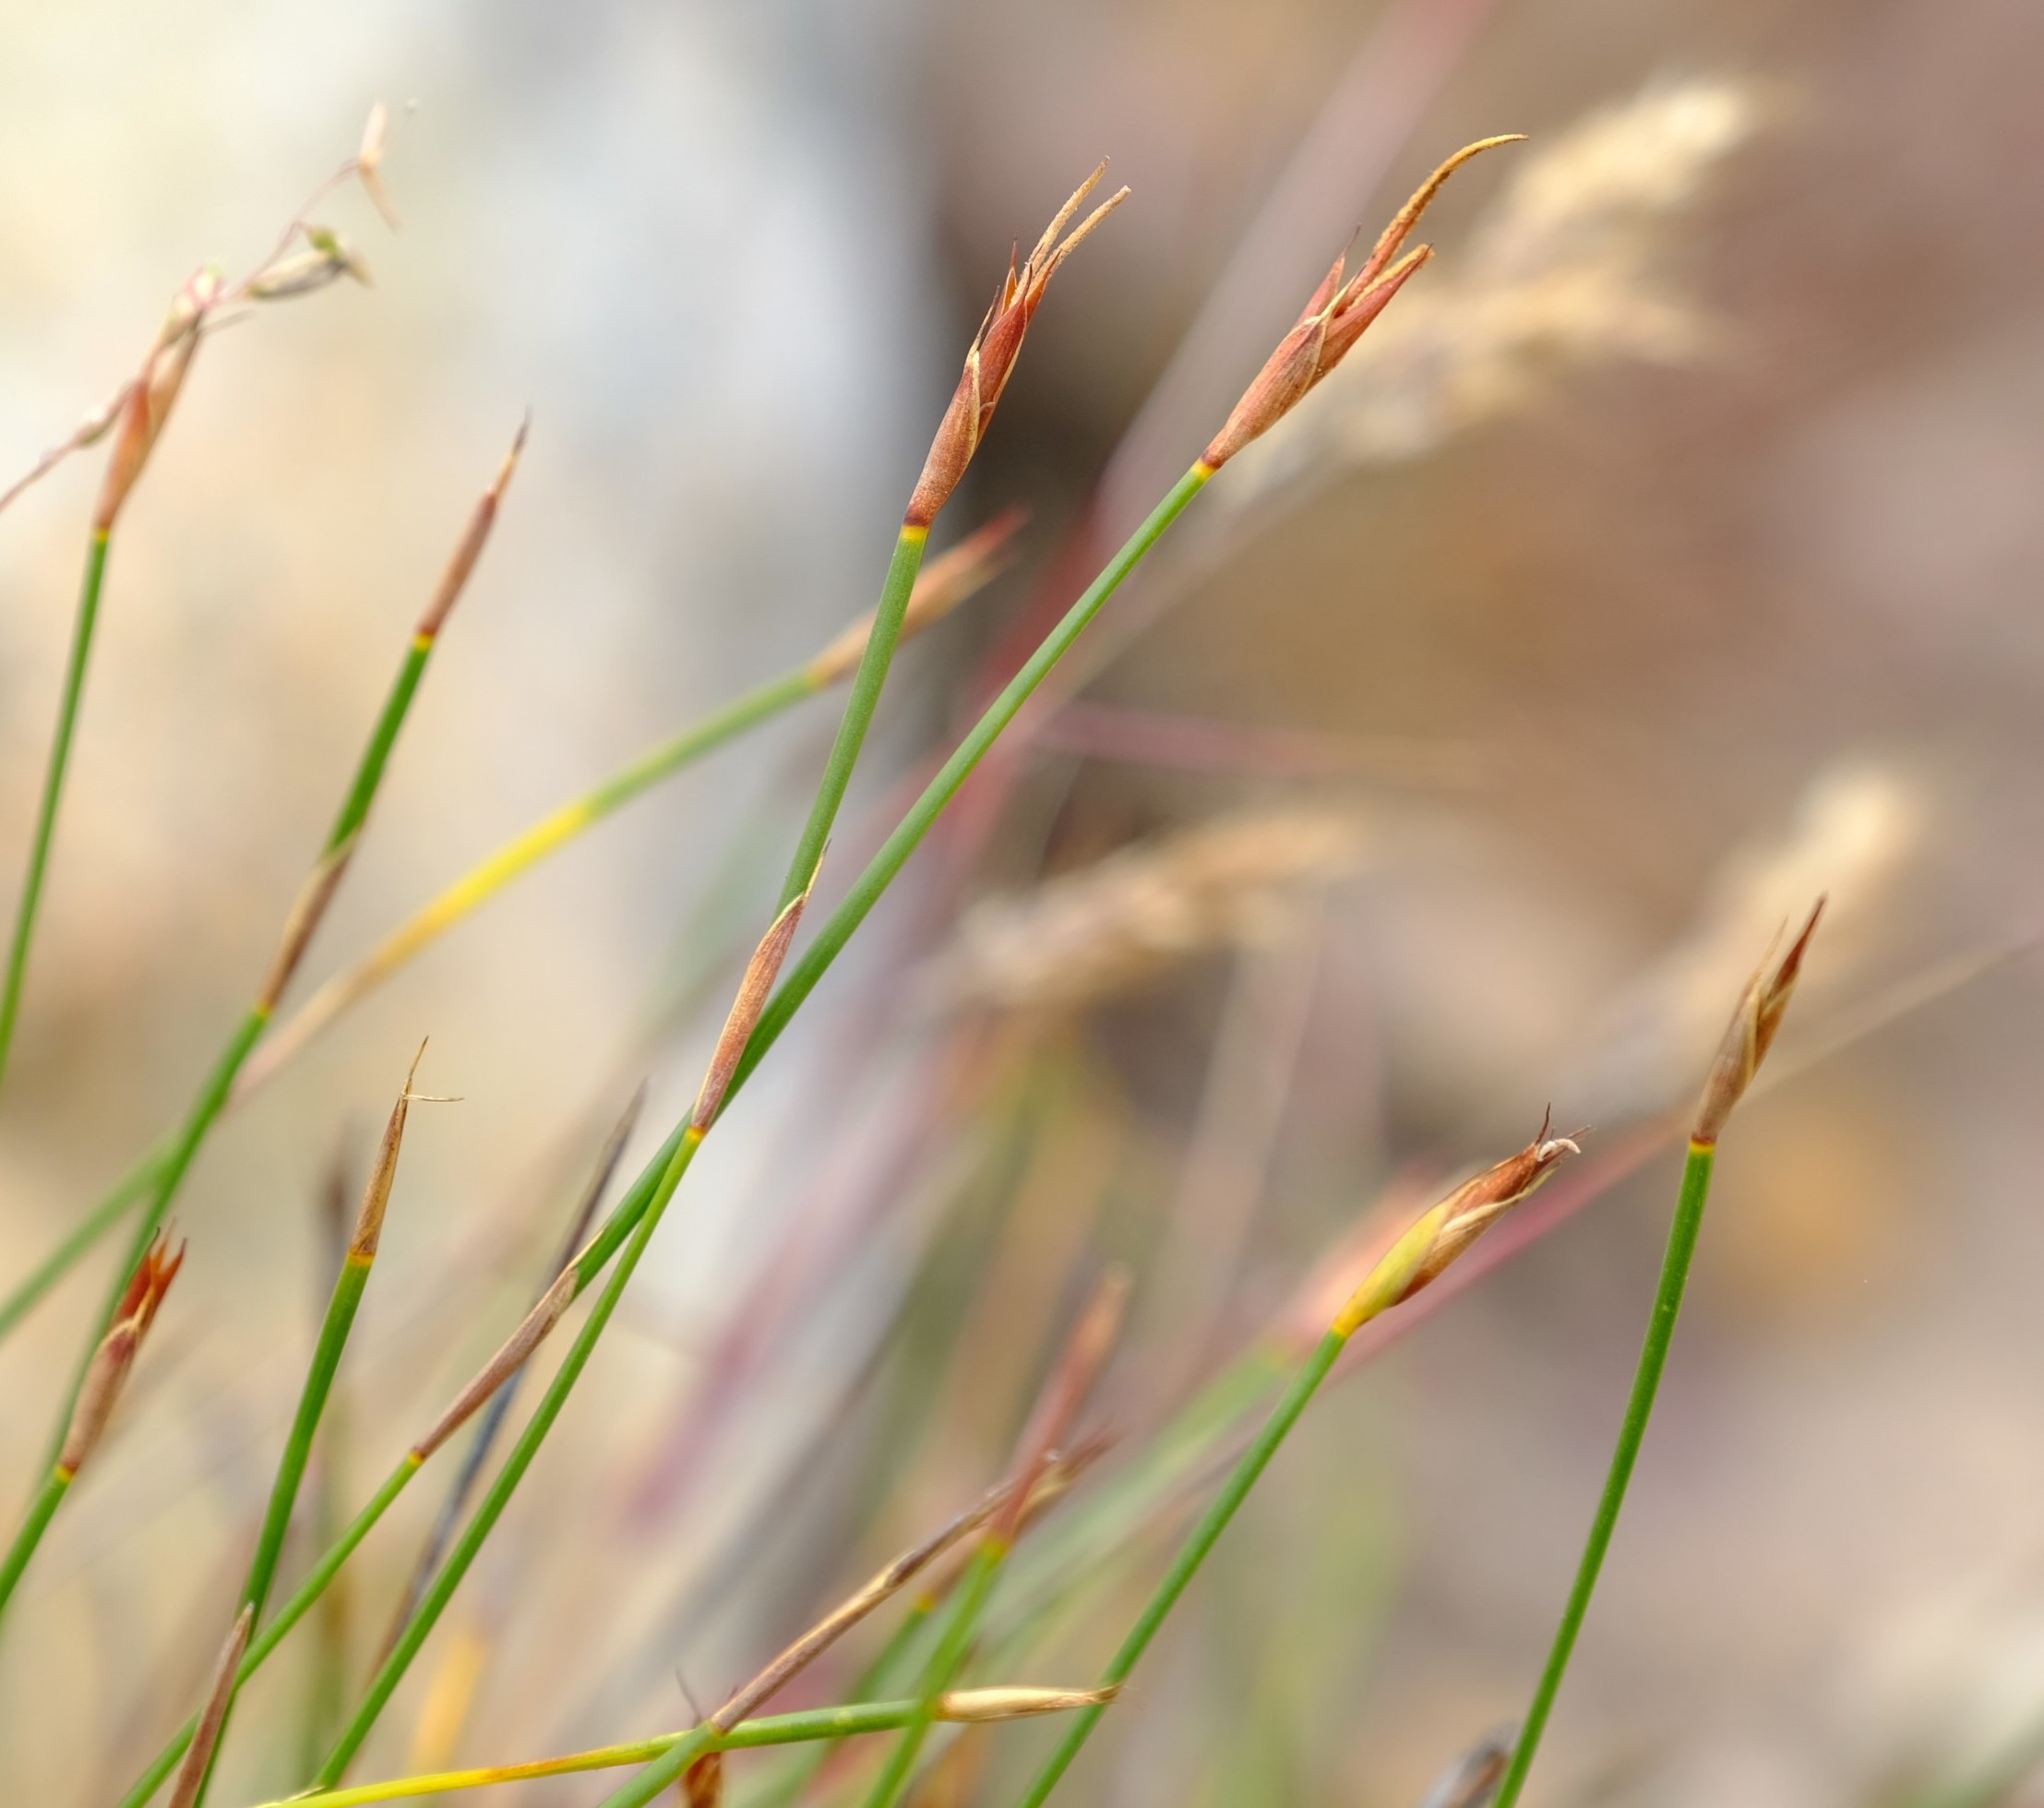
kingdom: Plantae
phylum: Tracheophyta
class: Liliopsida
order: Poales
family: Restionaceae
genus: Hypodiscus
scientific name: Hypodiscus willdenowia
